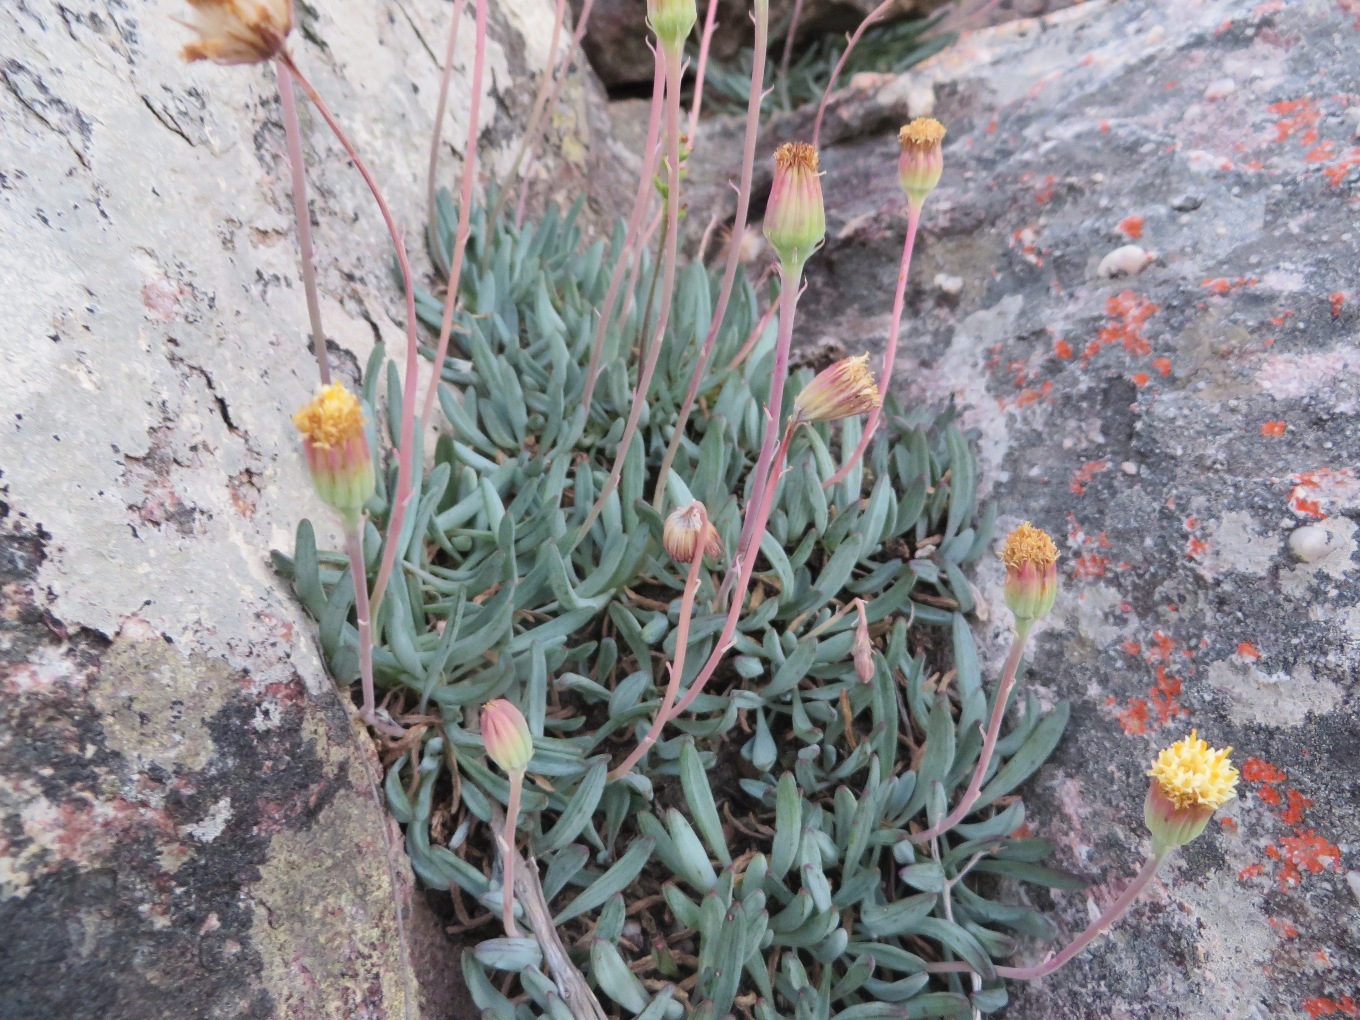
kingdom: Plantae
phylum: Tracheophyta
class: Magnoliopsida
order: Asterales
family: Asteraceae
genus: Curio
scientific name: Curio repens
